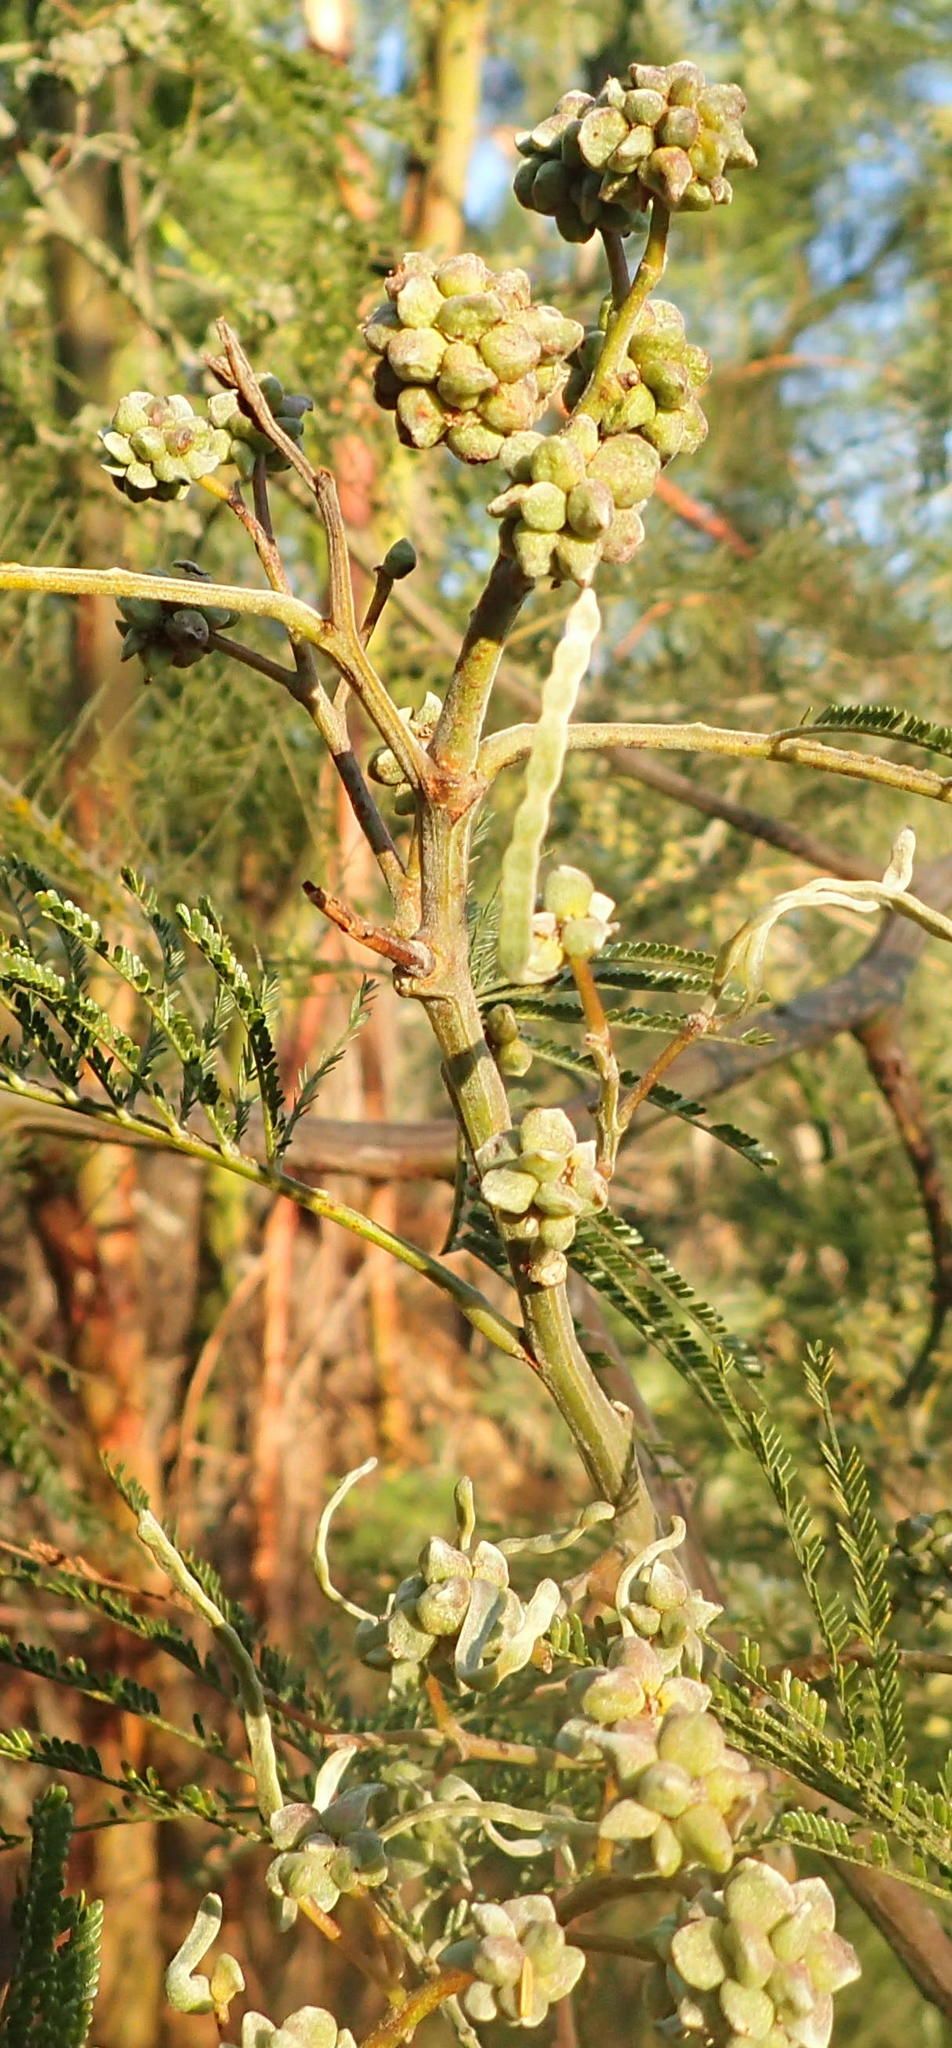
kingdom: Animalia
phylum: Arthropoda
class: Insecta
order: Diptera
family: Cecidomyiidae
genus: Dasineura
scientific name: Dasineura rubiformis
